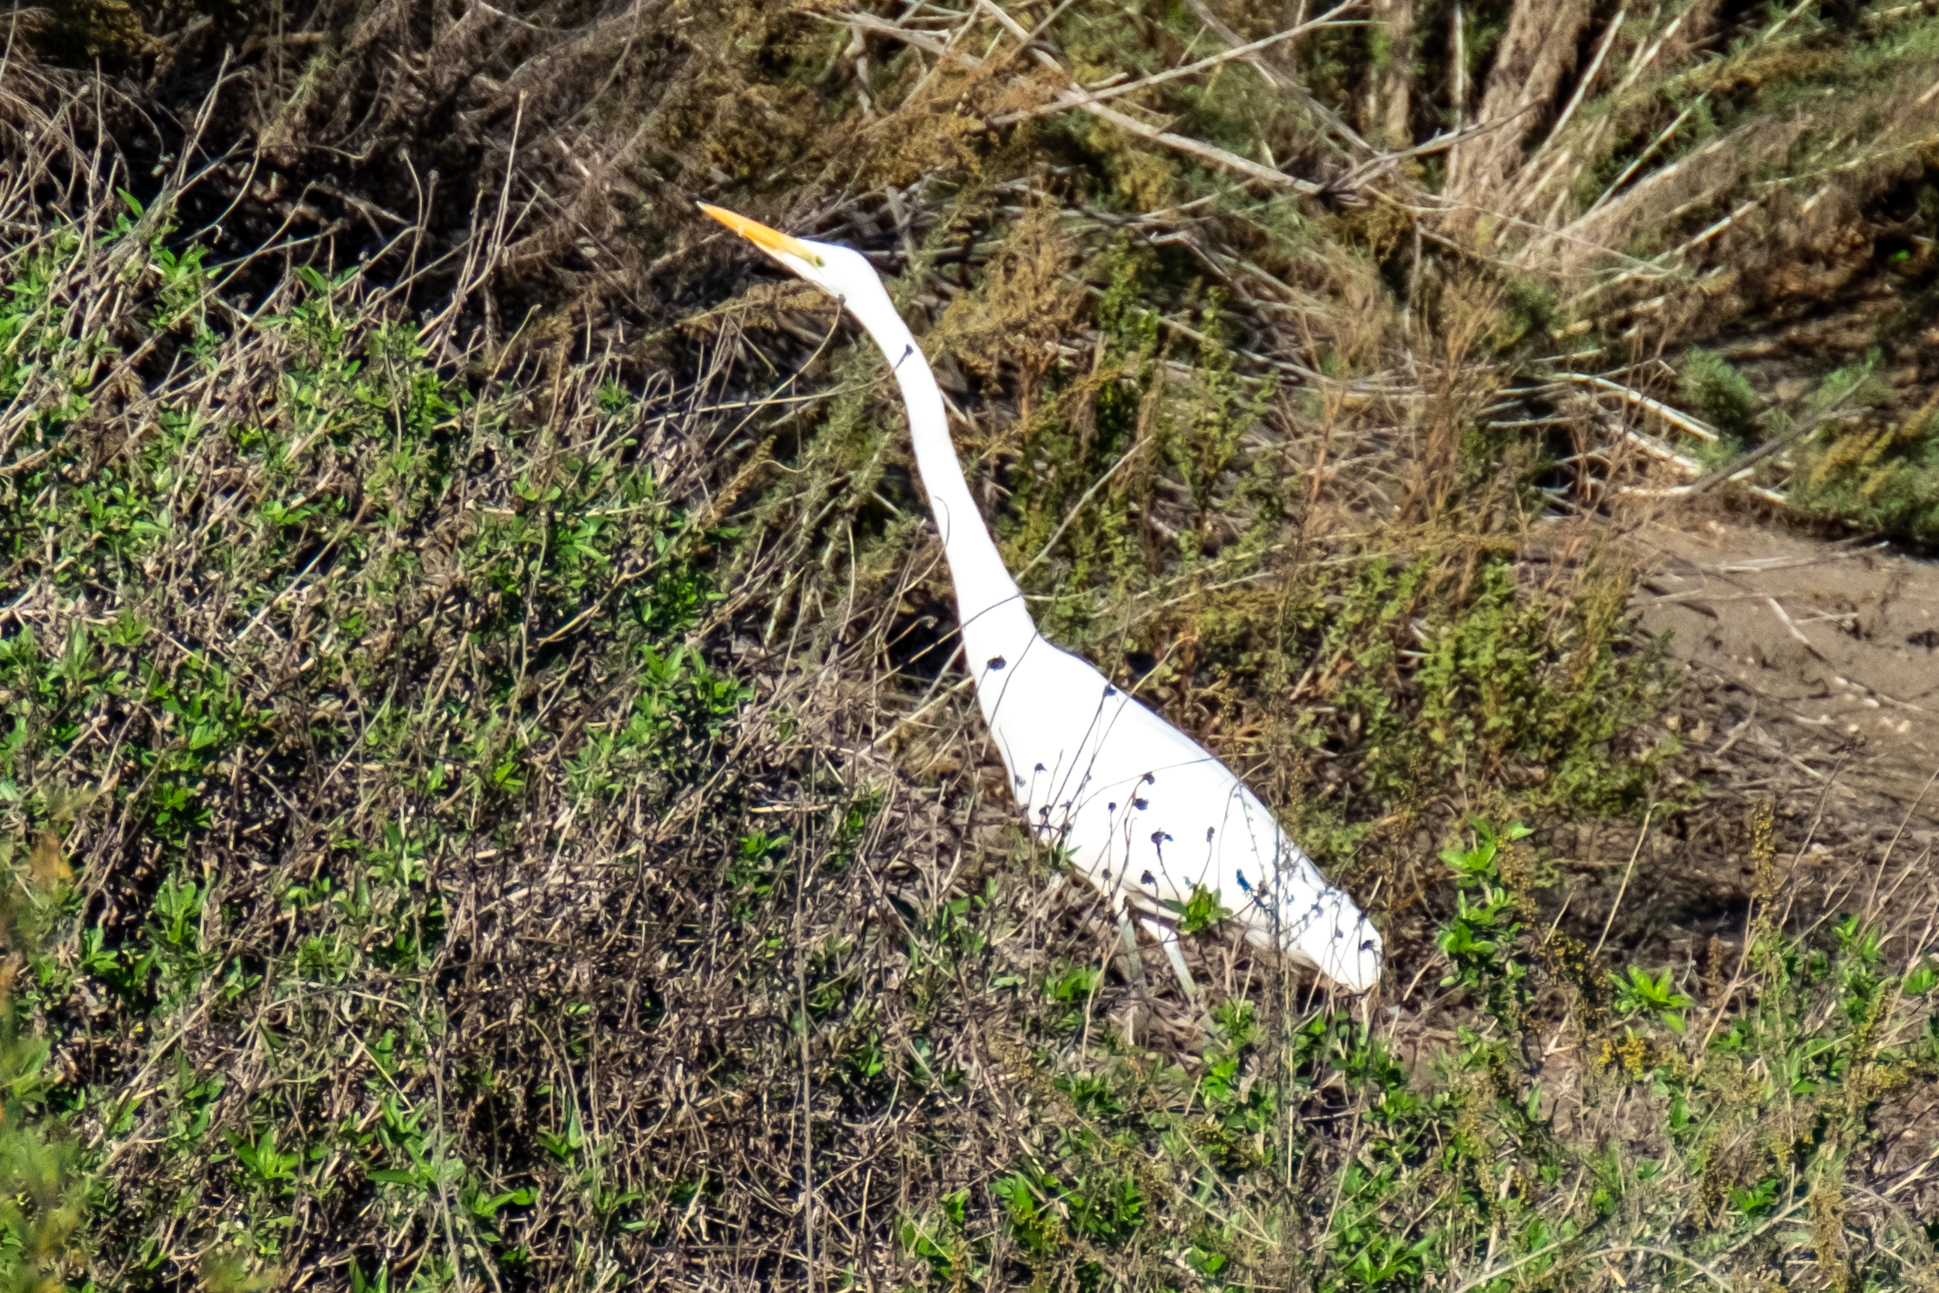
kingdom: Animalia
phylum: Chordata
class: Aves
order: Pelecaniformes
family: Ardeidae
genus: Ardea
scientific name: Ardea alba
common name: Great egret
